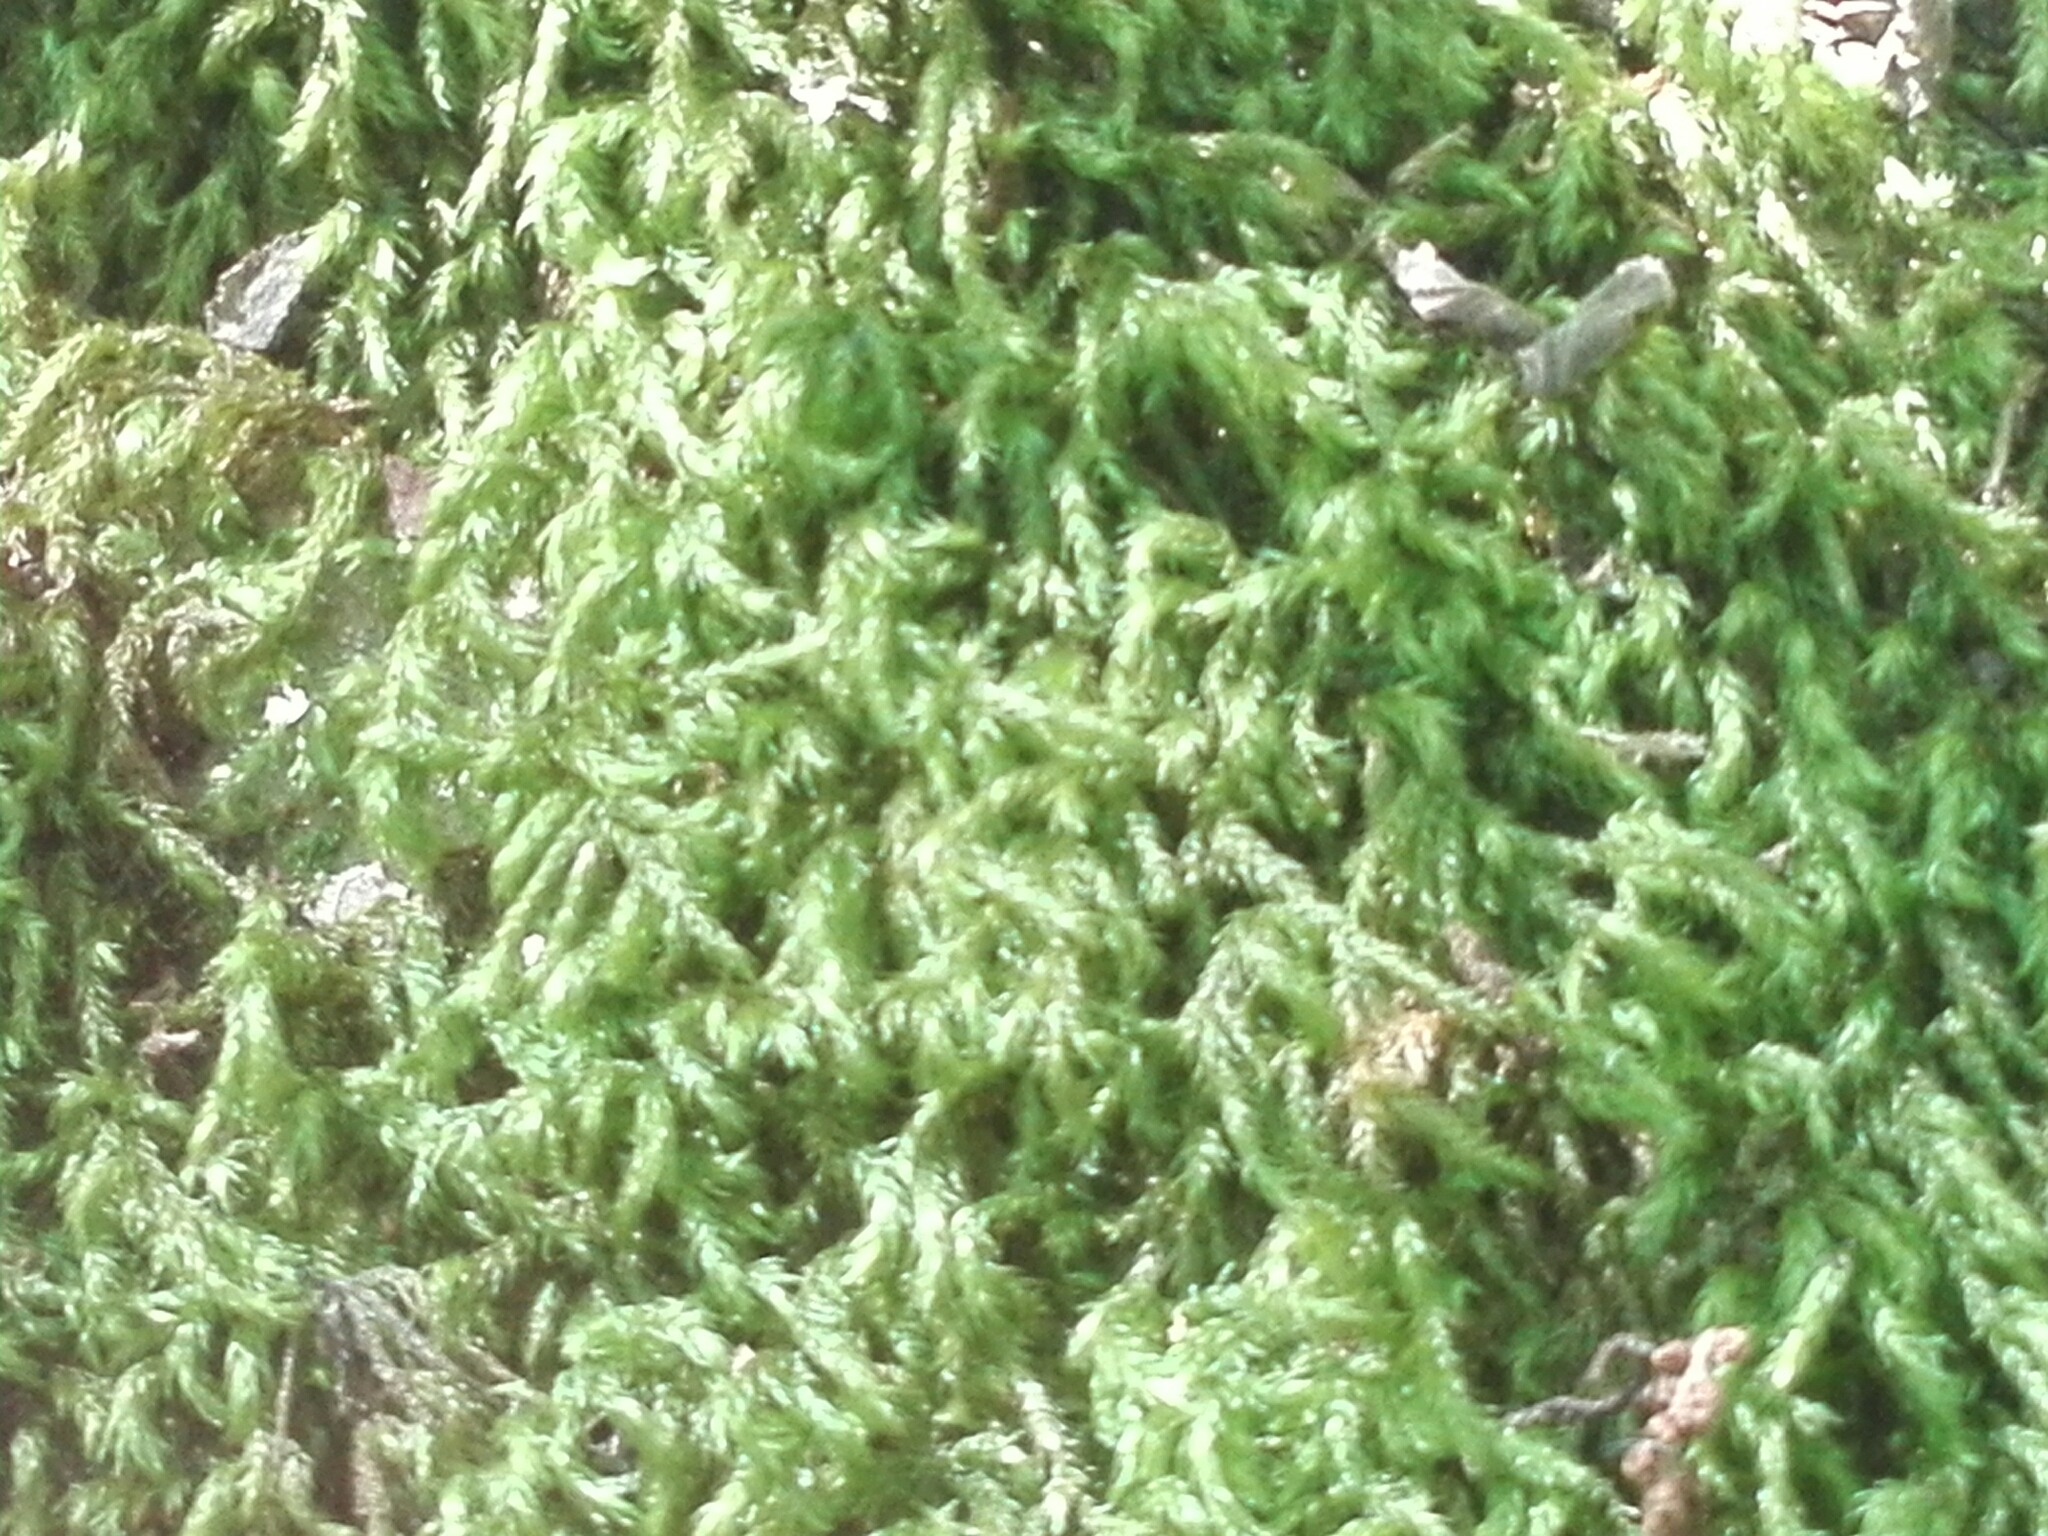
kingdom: Plantae
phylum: Bryophyta
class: Bryopsida
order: Hypnales
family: Lembophyllaceae
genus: Pseudisothecium
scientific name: Pseudisothecium myosuroides
